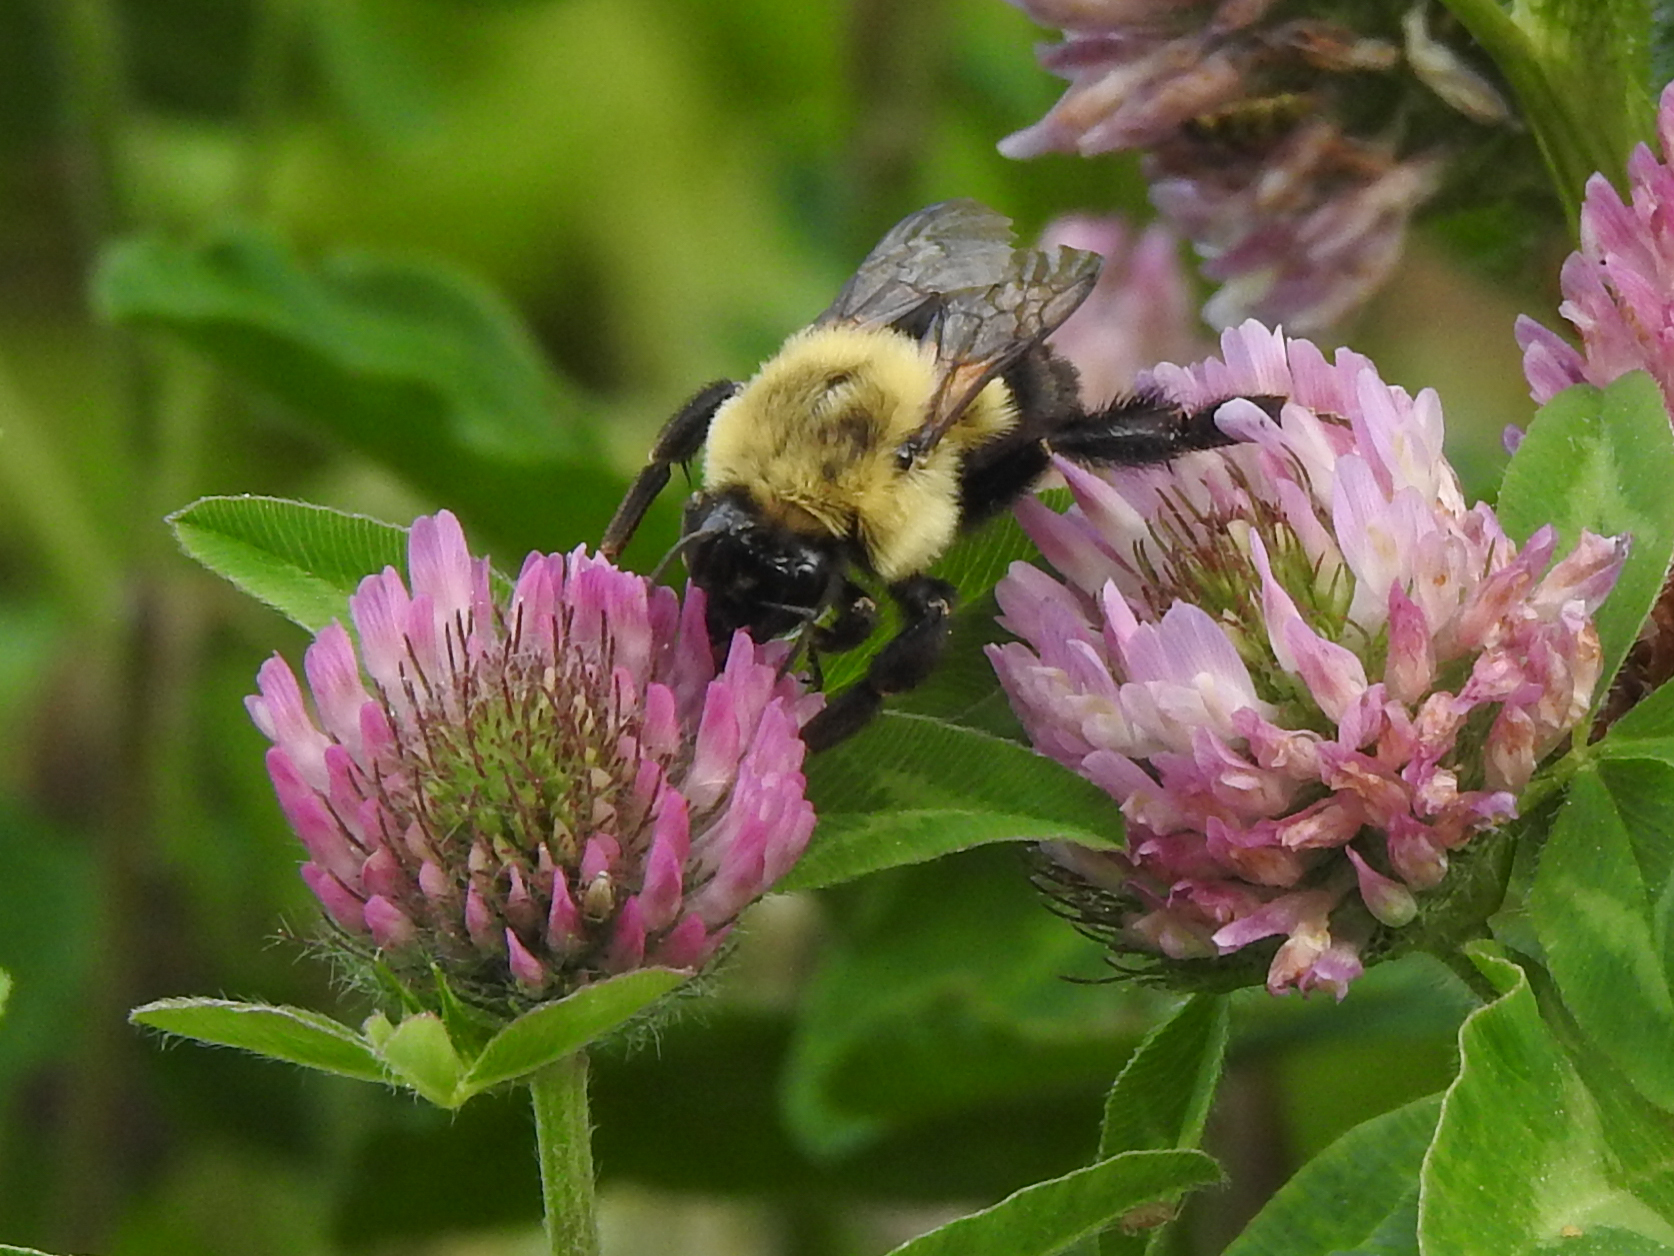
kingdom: Animalia
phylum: Arthropoda
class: Insecta
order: Hymenoptera
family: Apidae
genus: Bombus
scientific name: Bombus impatiens
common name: Common eastern bumble bee
